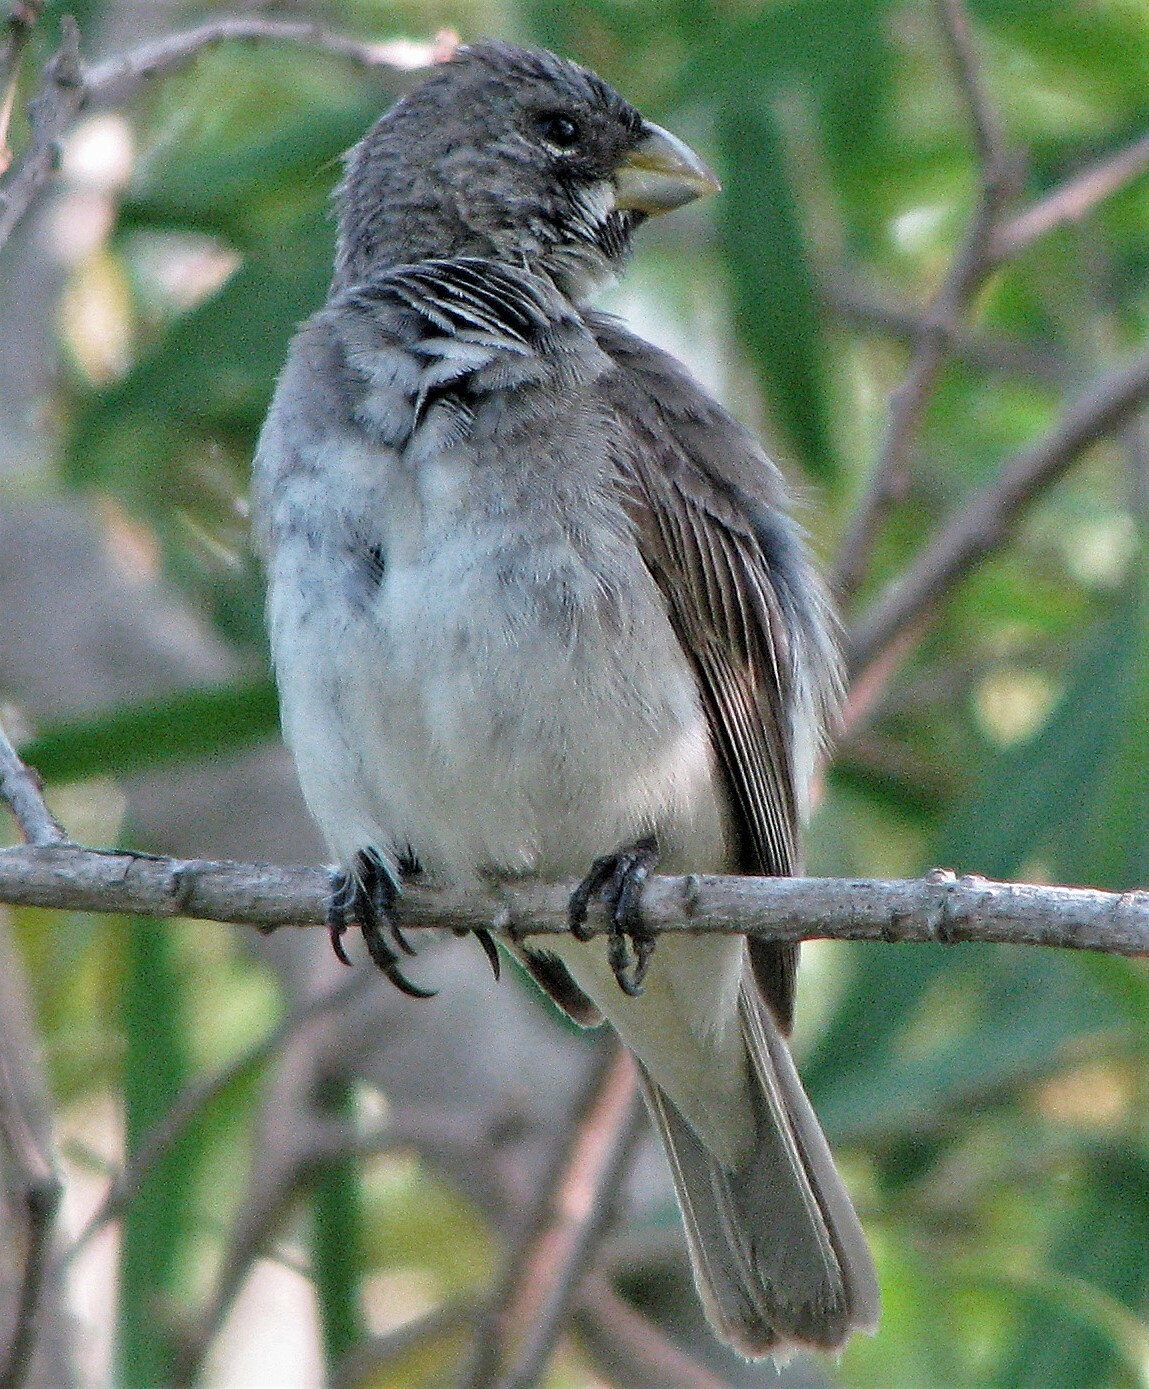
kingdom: Animalia
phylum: Chordata
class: Aves
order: Passeriformes
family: Thraupidae
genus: Sporophila
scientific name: Sporophila caerulescens
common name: Double-collared seedeater
